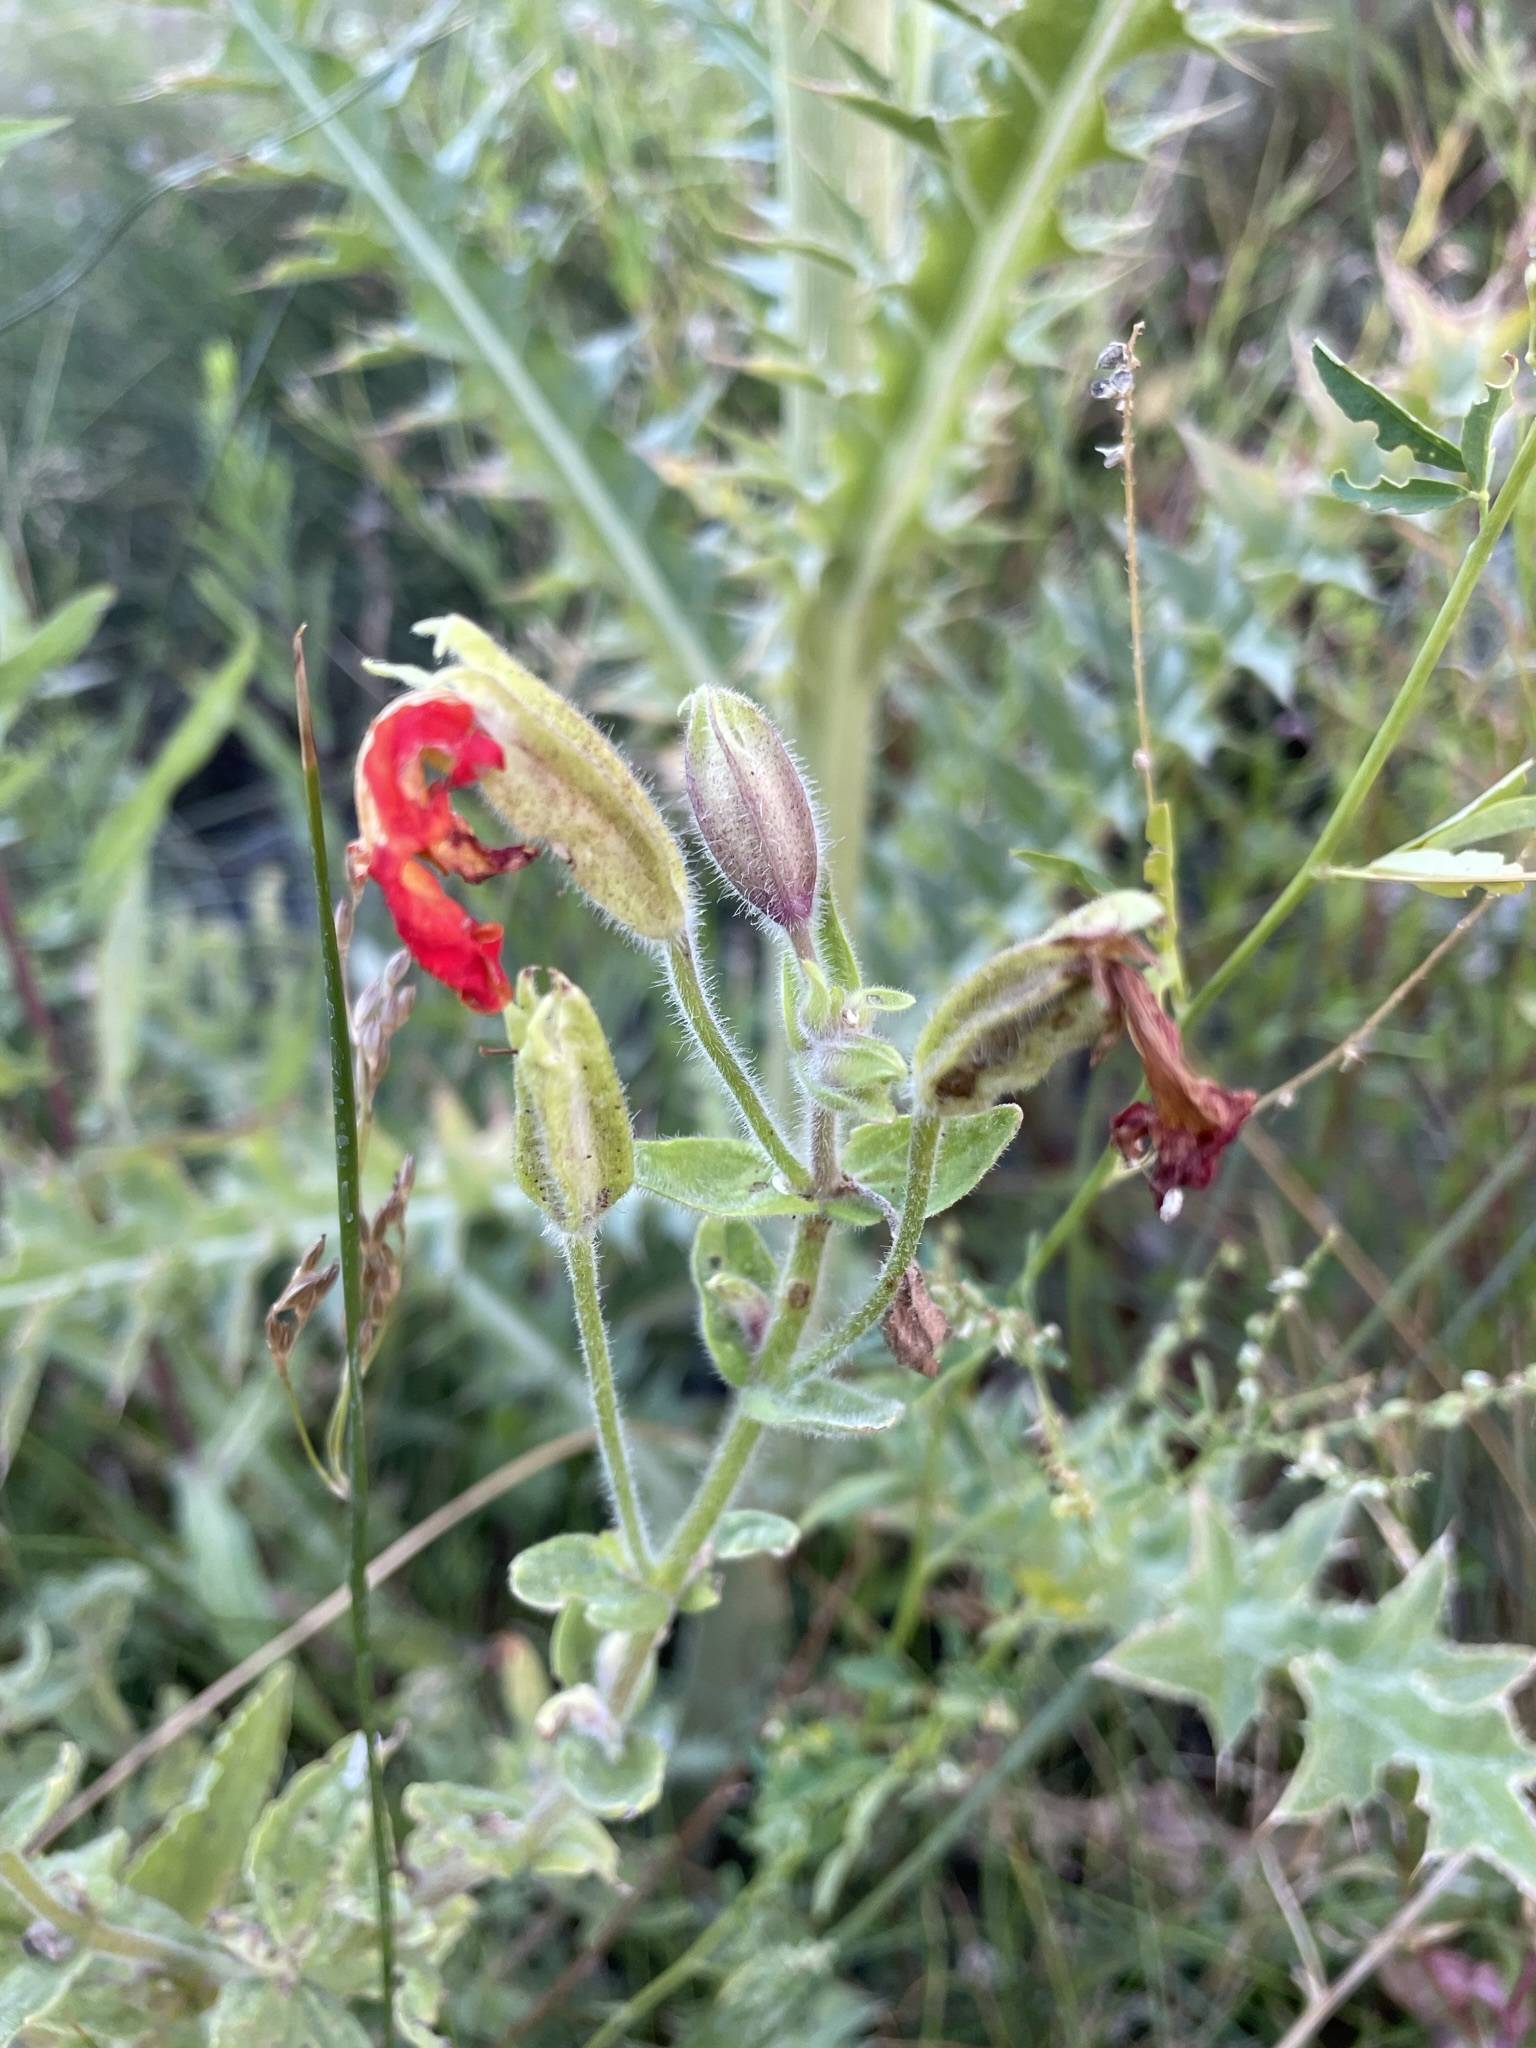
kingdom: Plantae
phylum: Tracheophyta
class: Magnoliopsida
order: Lamiales
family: Phrymaceae
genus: Erythranthe
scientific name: Erythranthe cardinalis
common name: Scarlet monkey-flower
